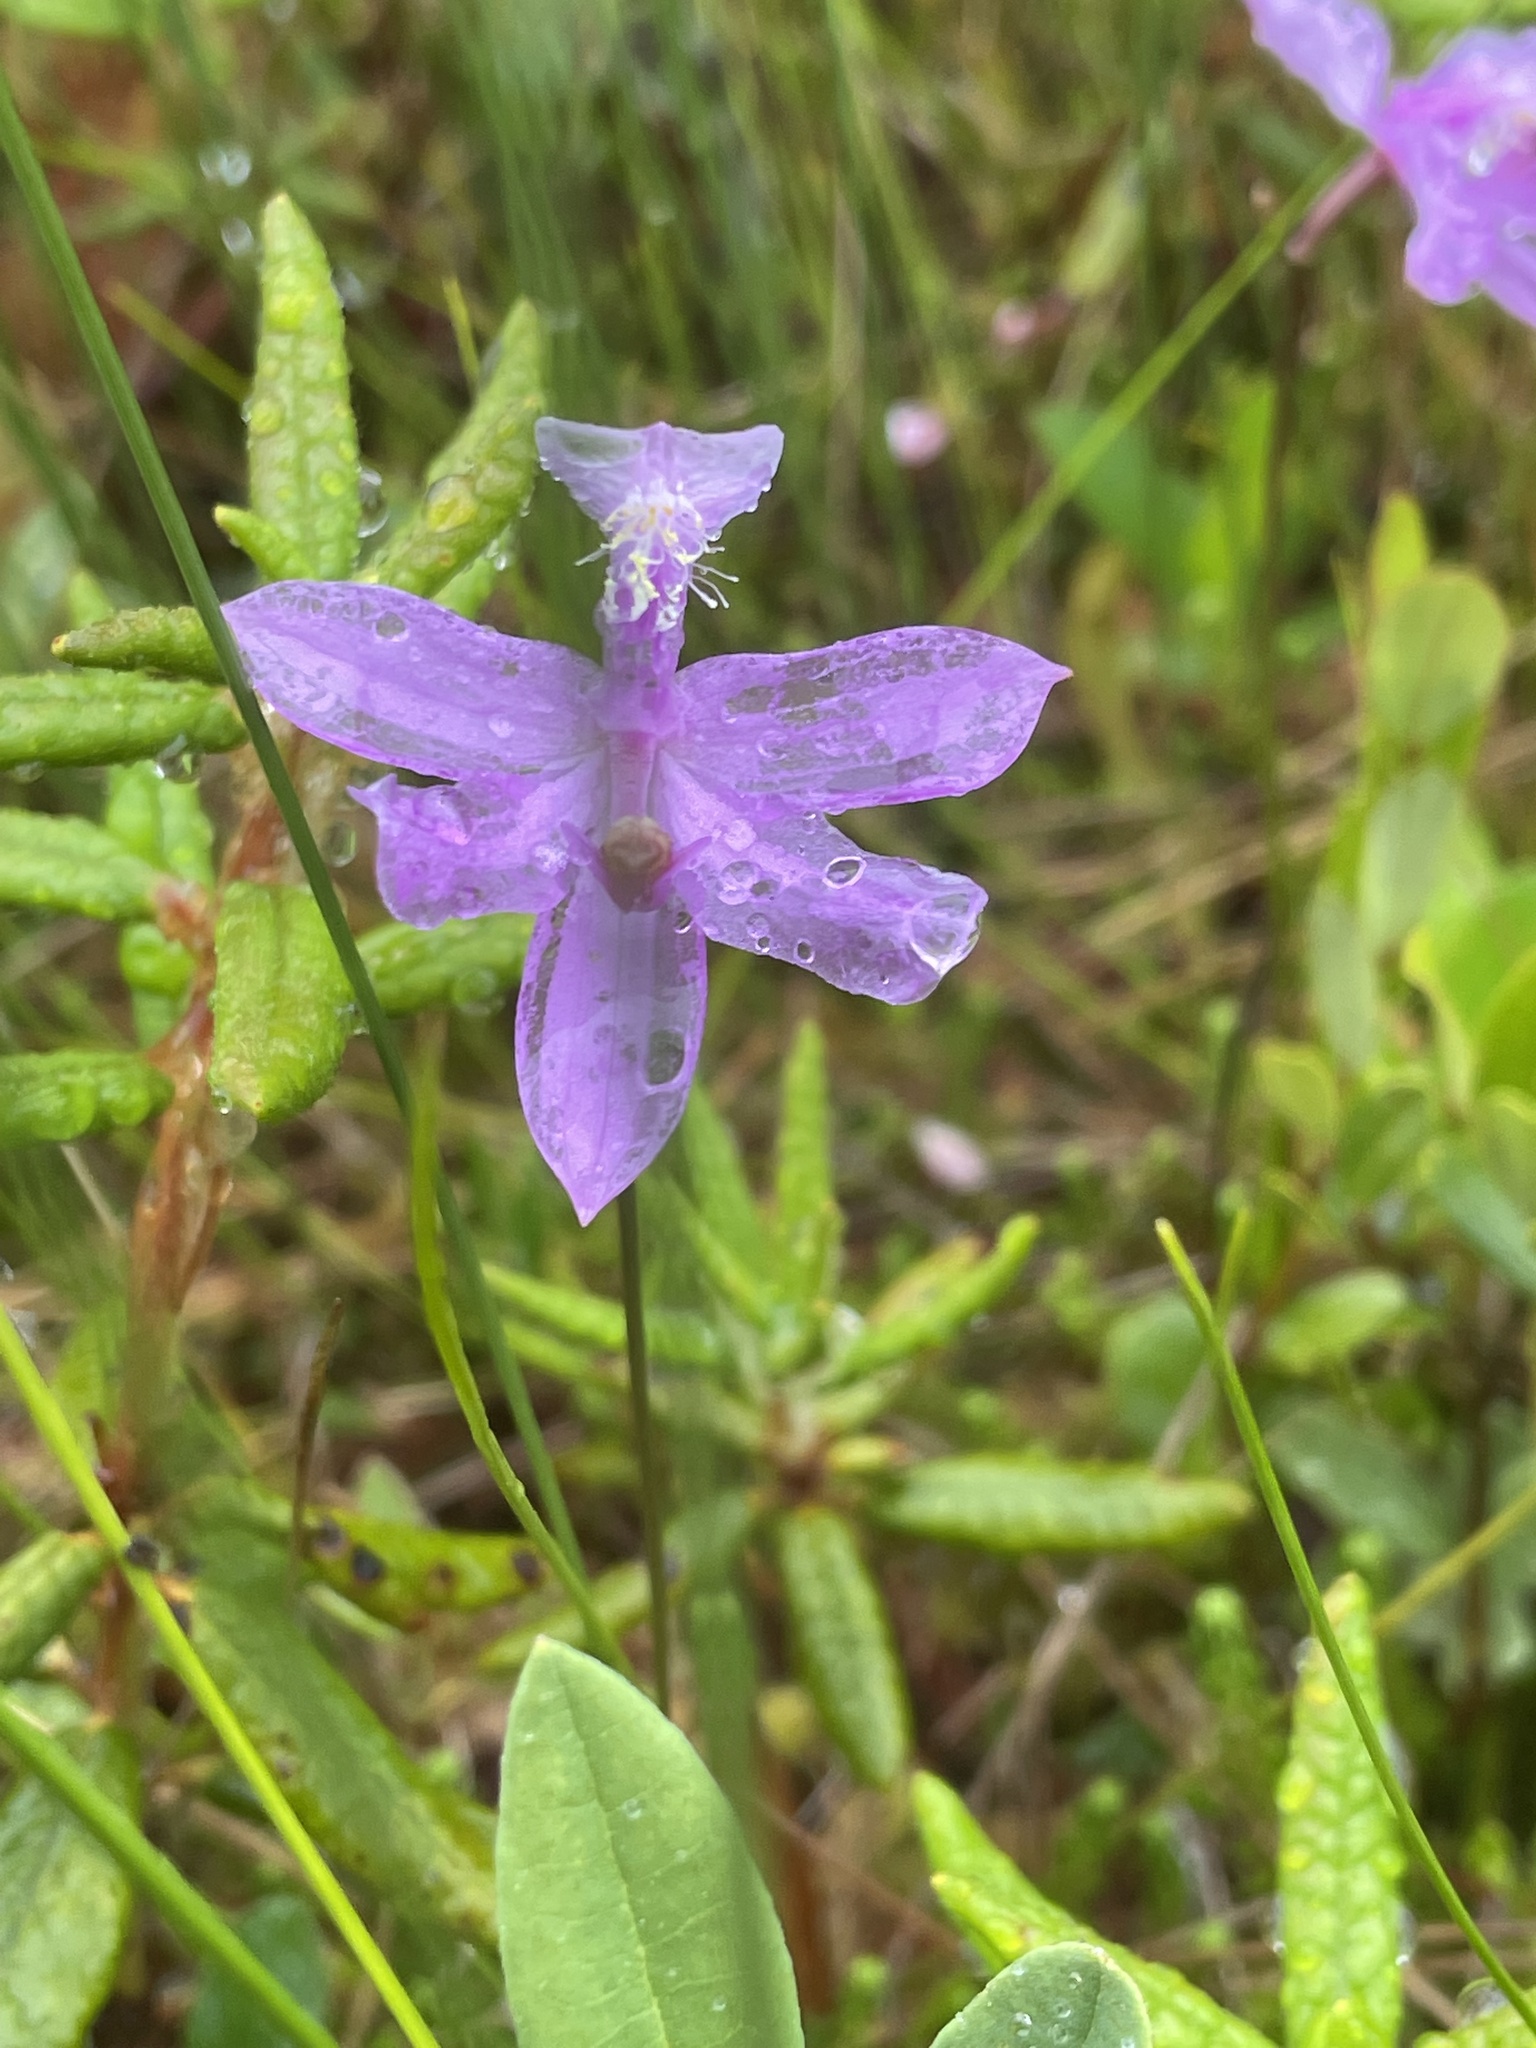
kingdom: Plantae
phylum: Tracheophyta
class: Liliopsida
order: Asparagales
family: Orchidaceae
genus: Calopogon
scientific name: Calopogon tuberosus
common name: Grass-pink
